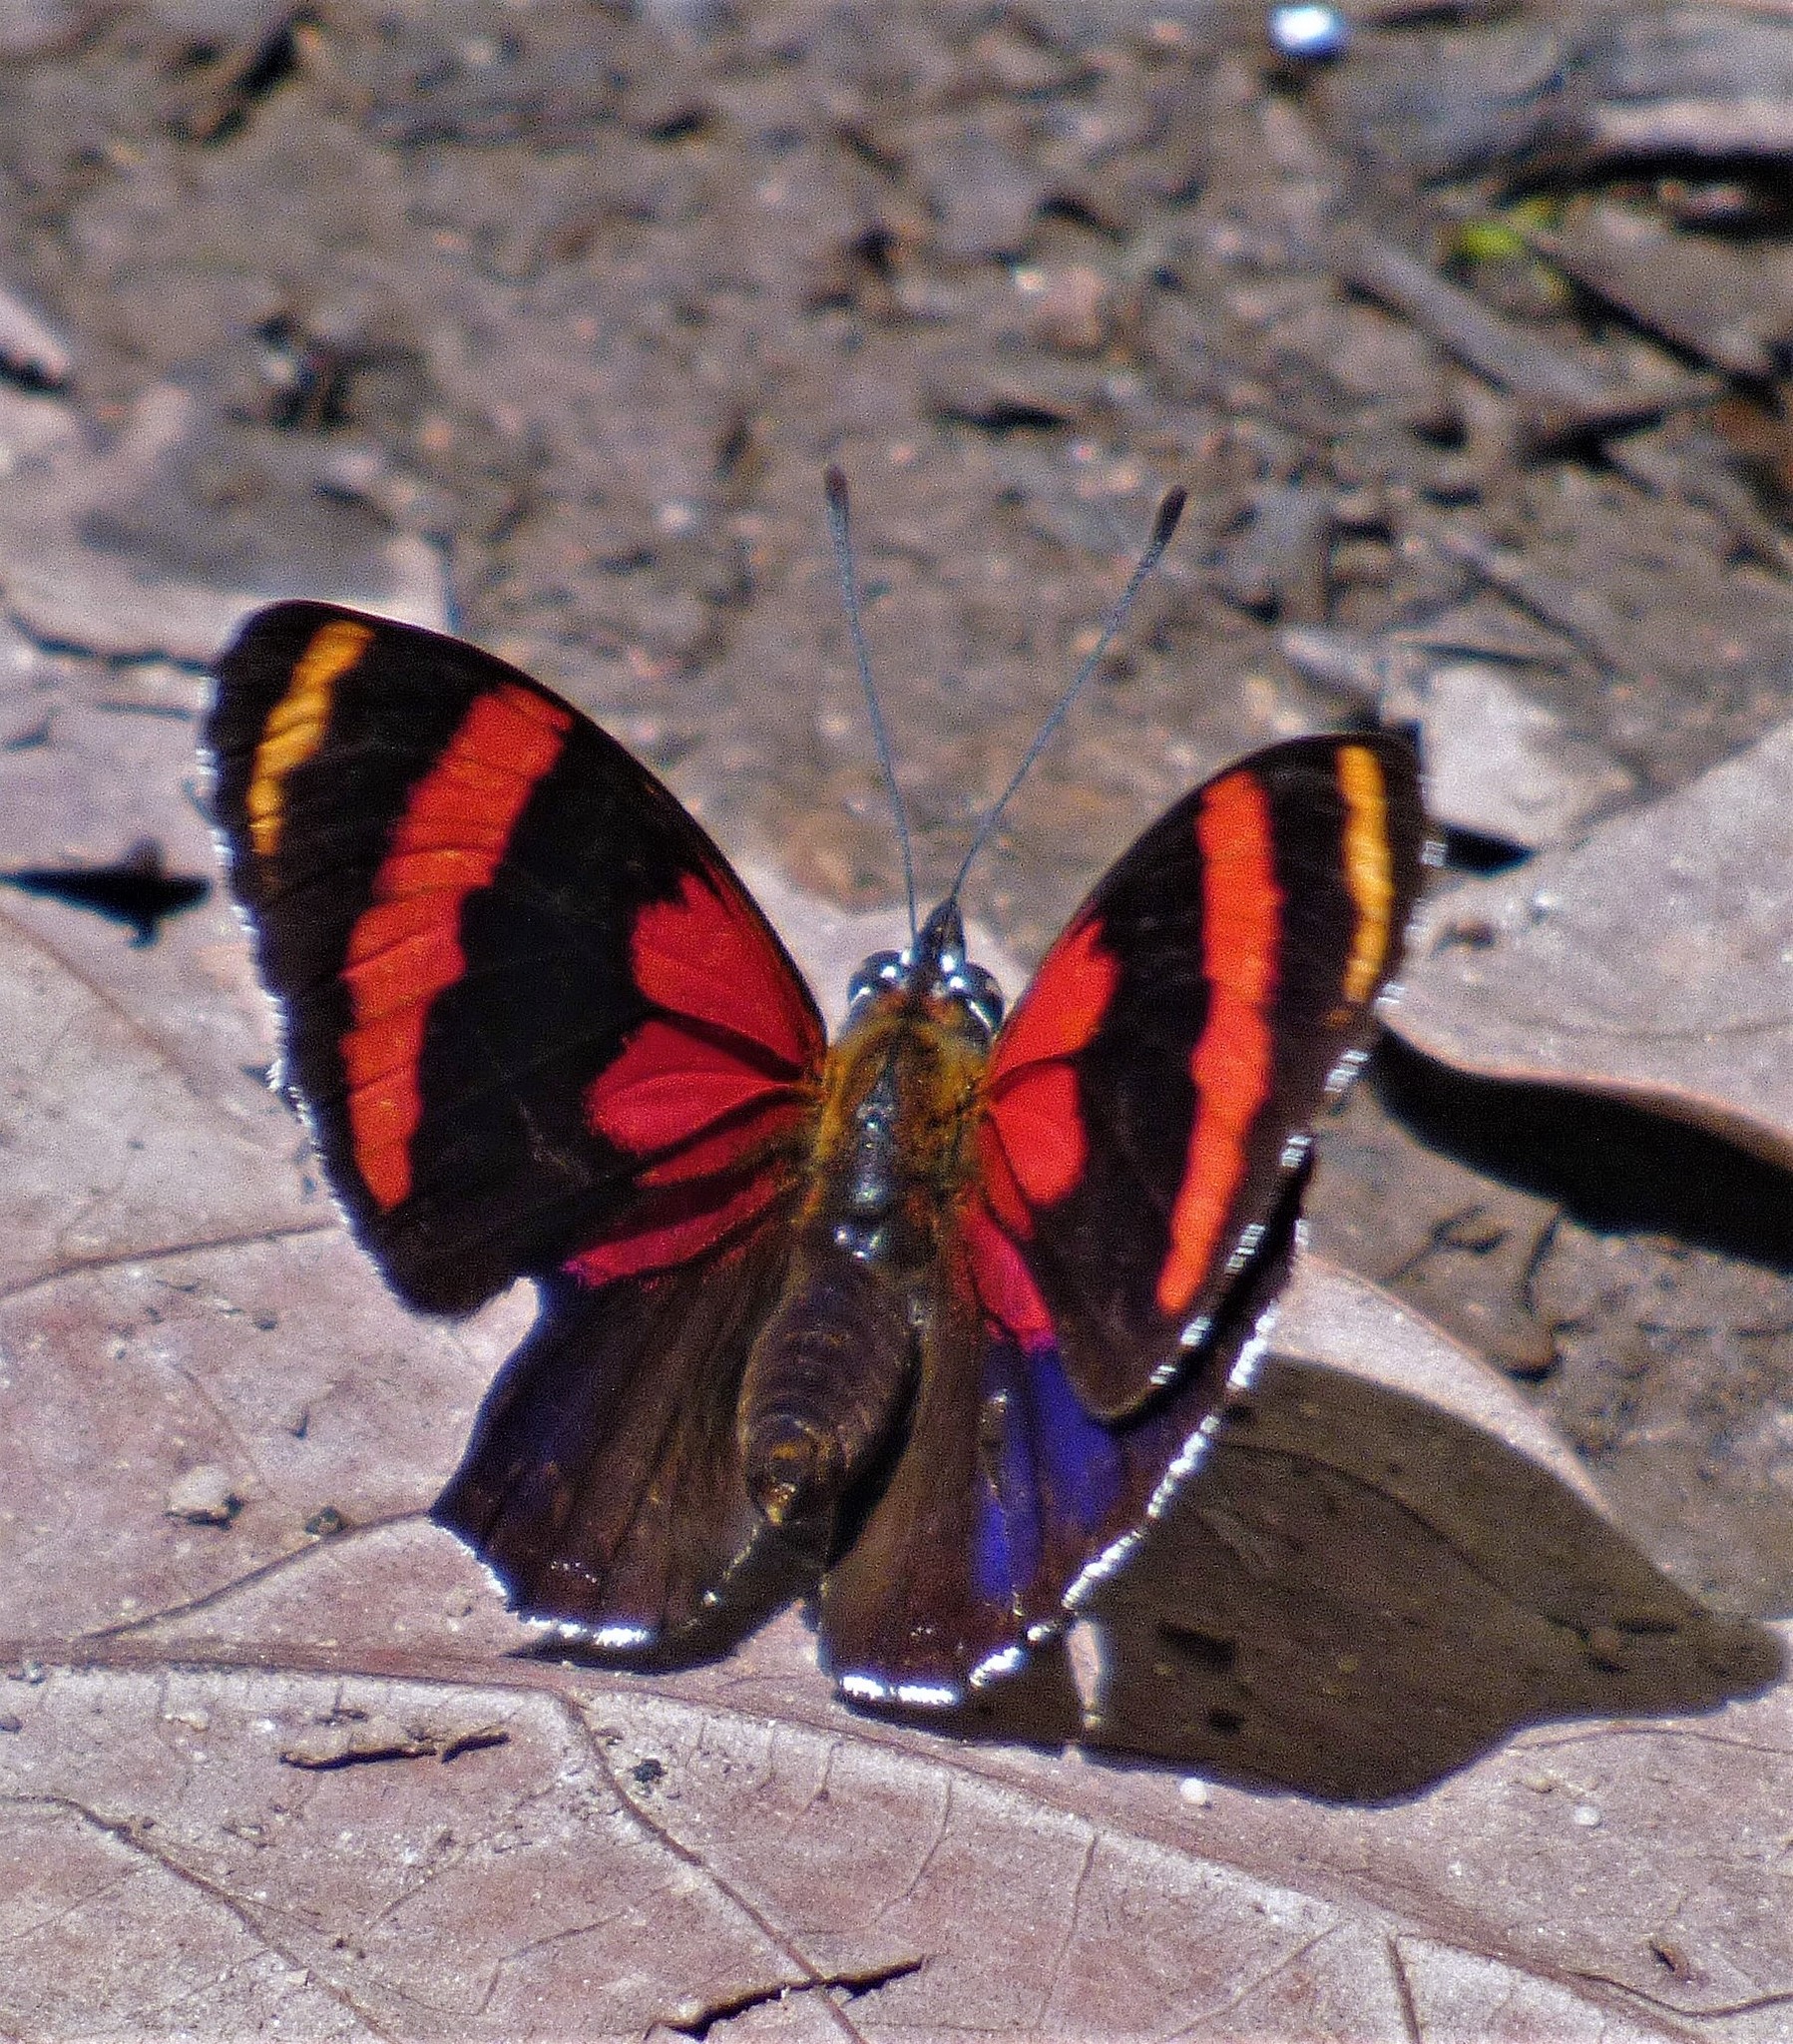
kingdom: Animalia
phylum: Arthropoda
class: Insecta
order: Lepidoptera
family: Nymphalidae
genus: Catagramma
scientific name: Catagramma Callicore sorana
